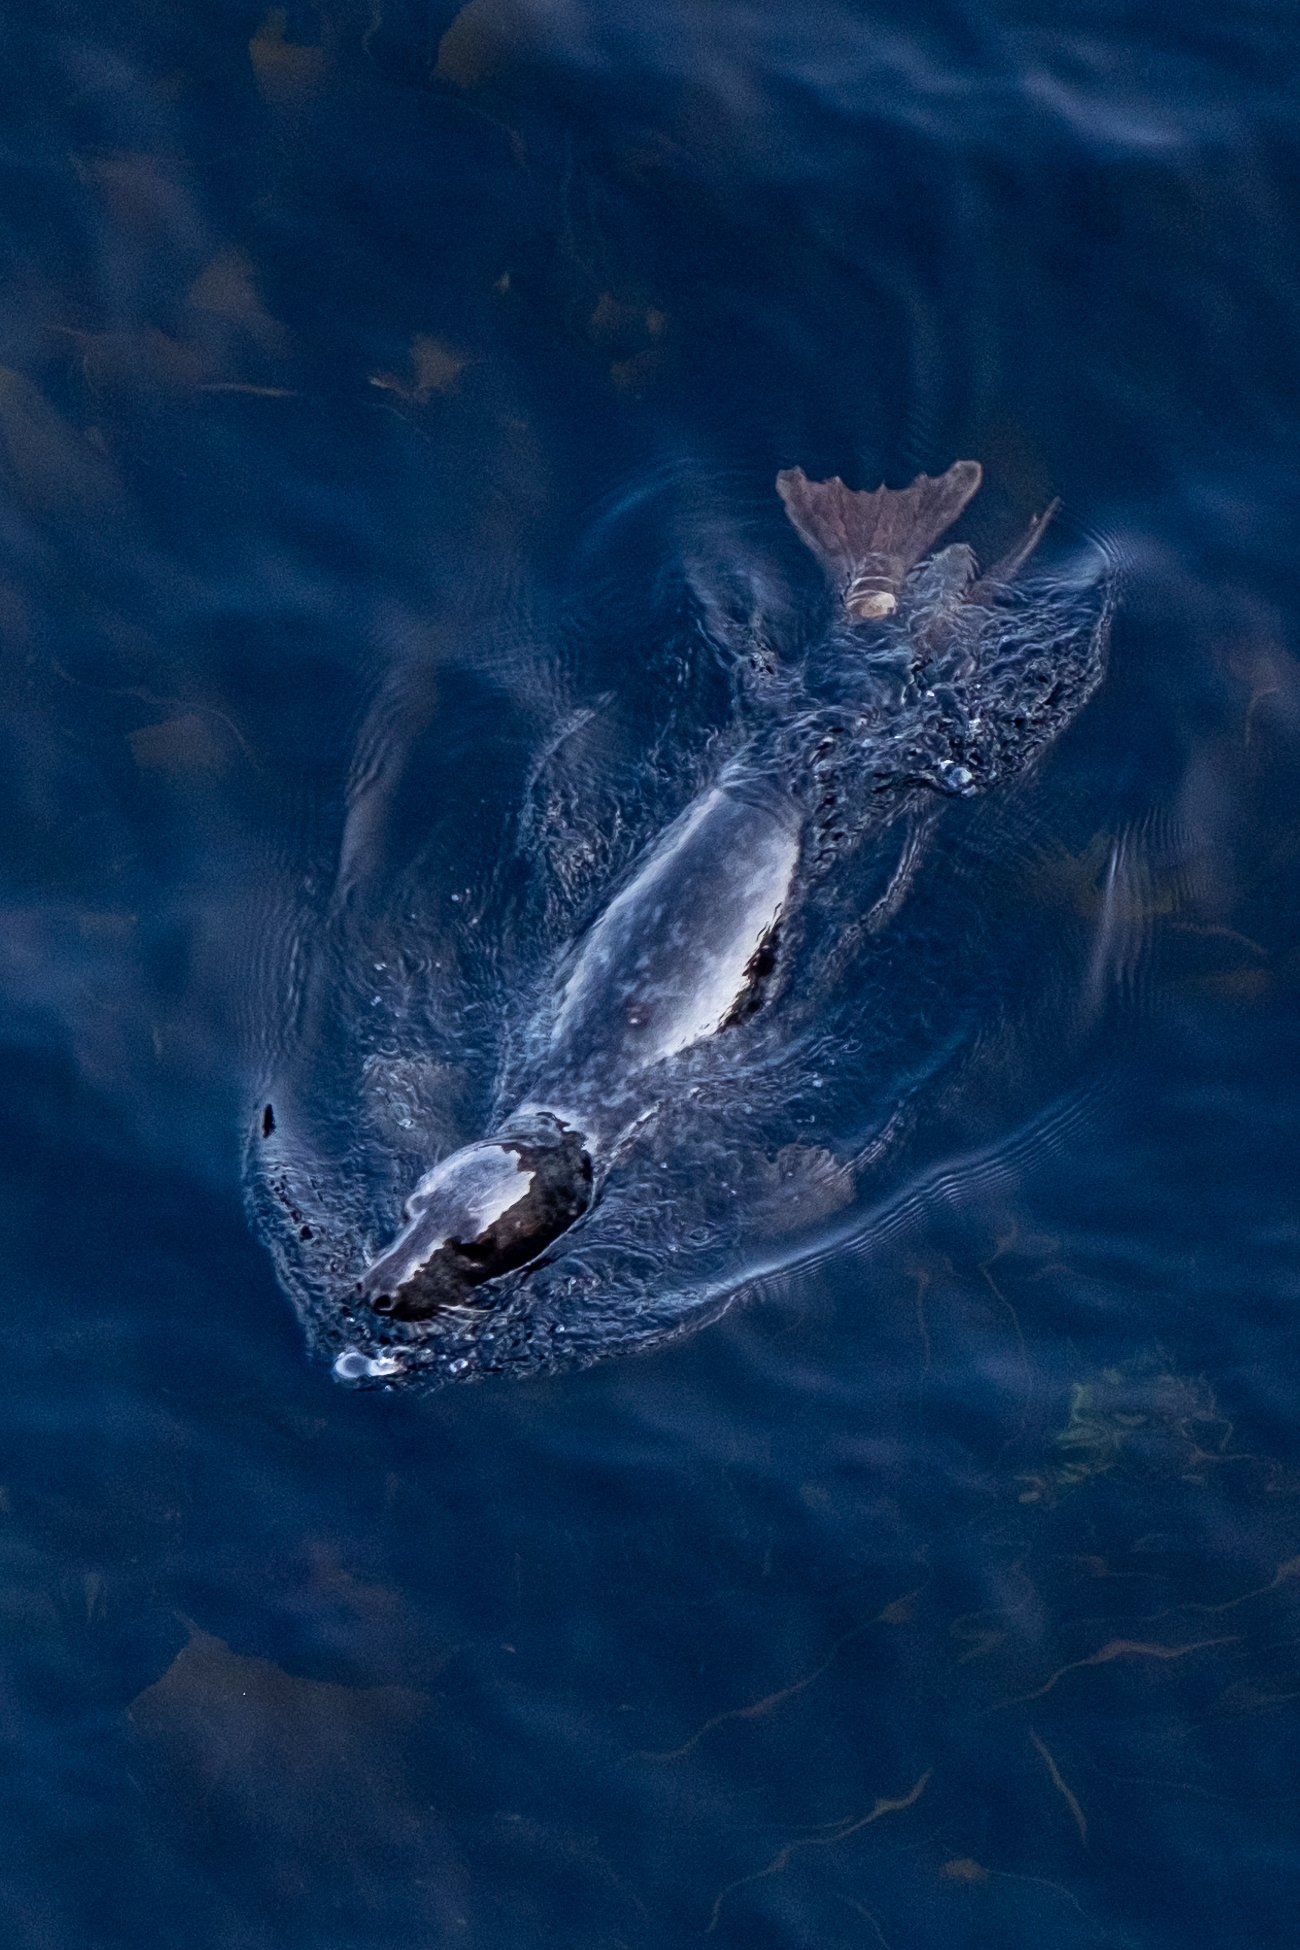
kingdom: Animalia
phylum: Chordata
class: Mammalia
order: Carnivora
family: Phocidae
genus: Halichoerus
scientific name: Halichoerus grypus
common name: Grey seal
